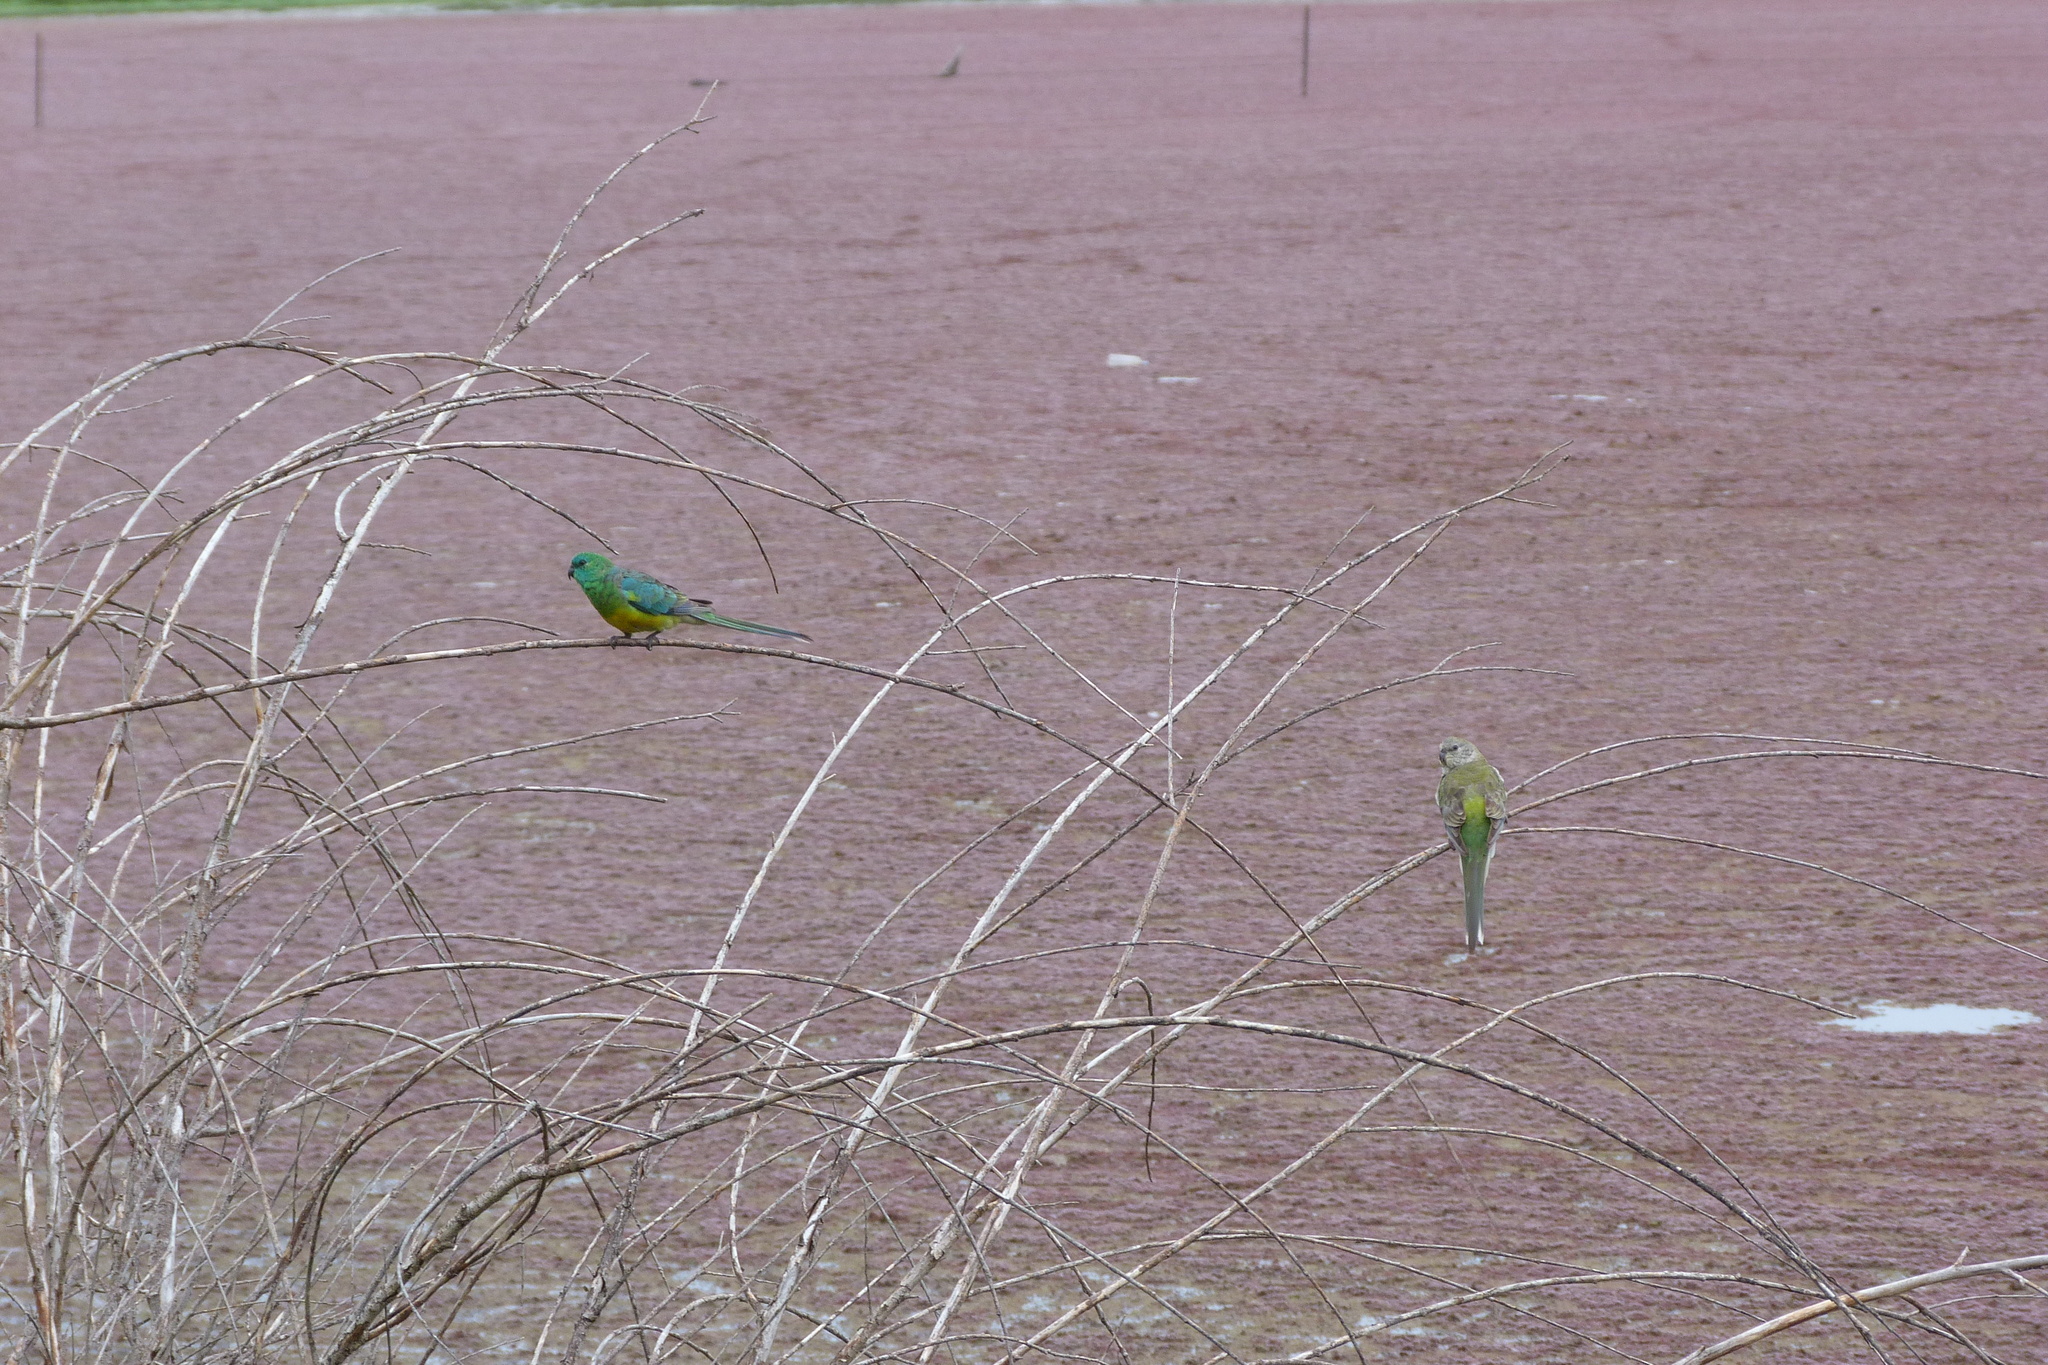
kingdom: Animalia
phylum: Chordata
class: Aves
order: Psittaciformes
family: Psittacidae
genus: Psephotus
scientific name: Psephotus haematonotus
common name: Red-rumped parrot
